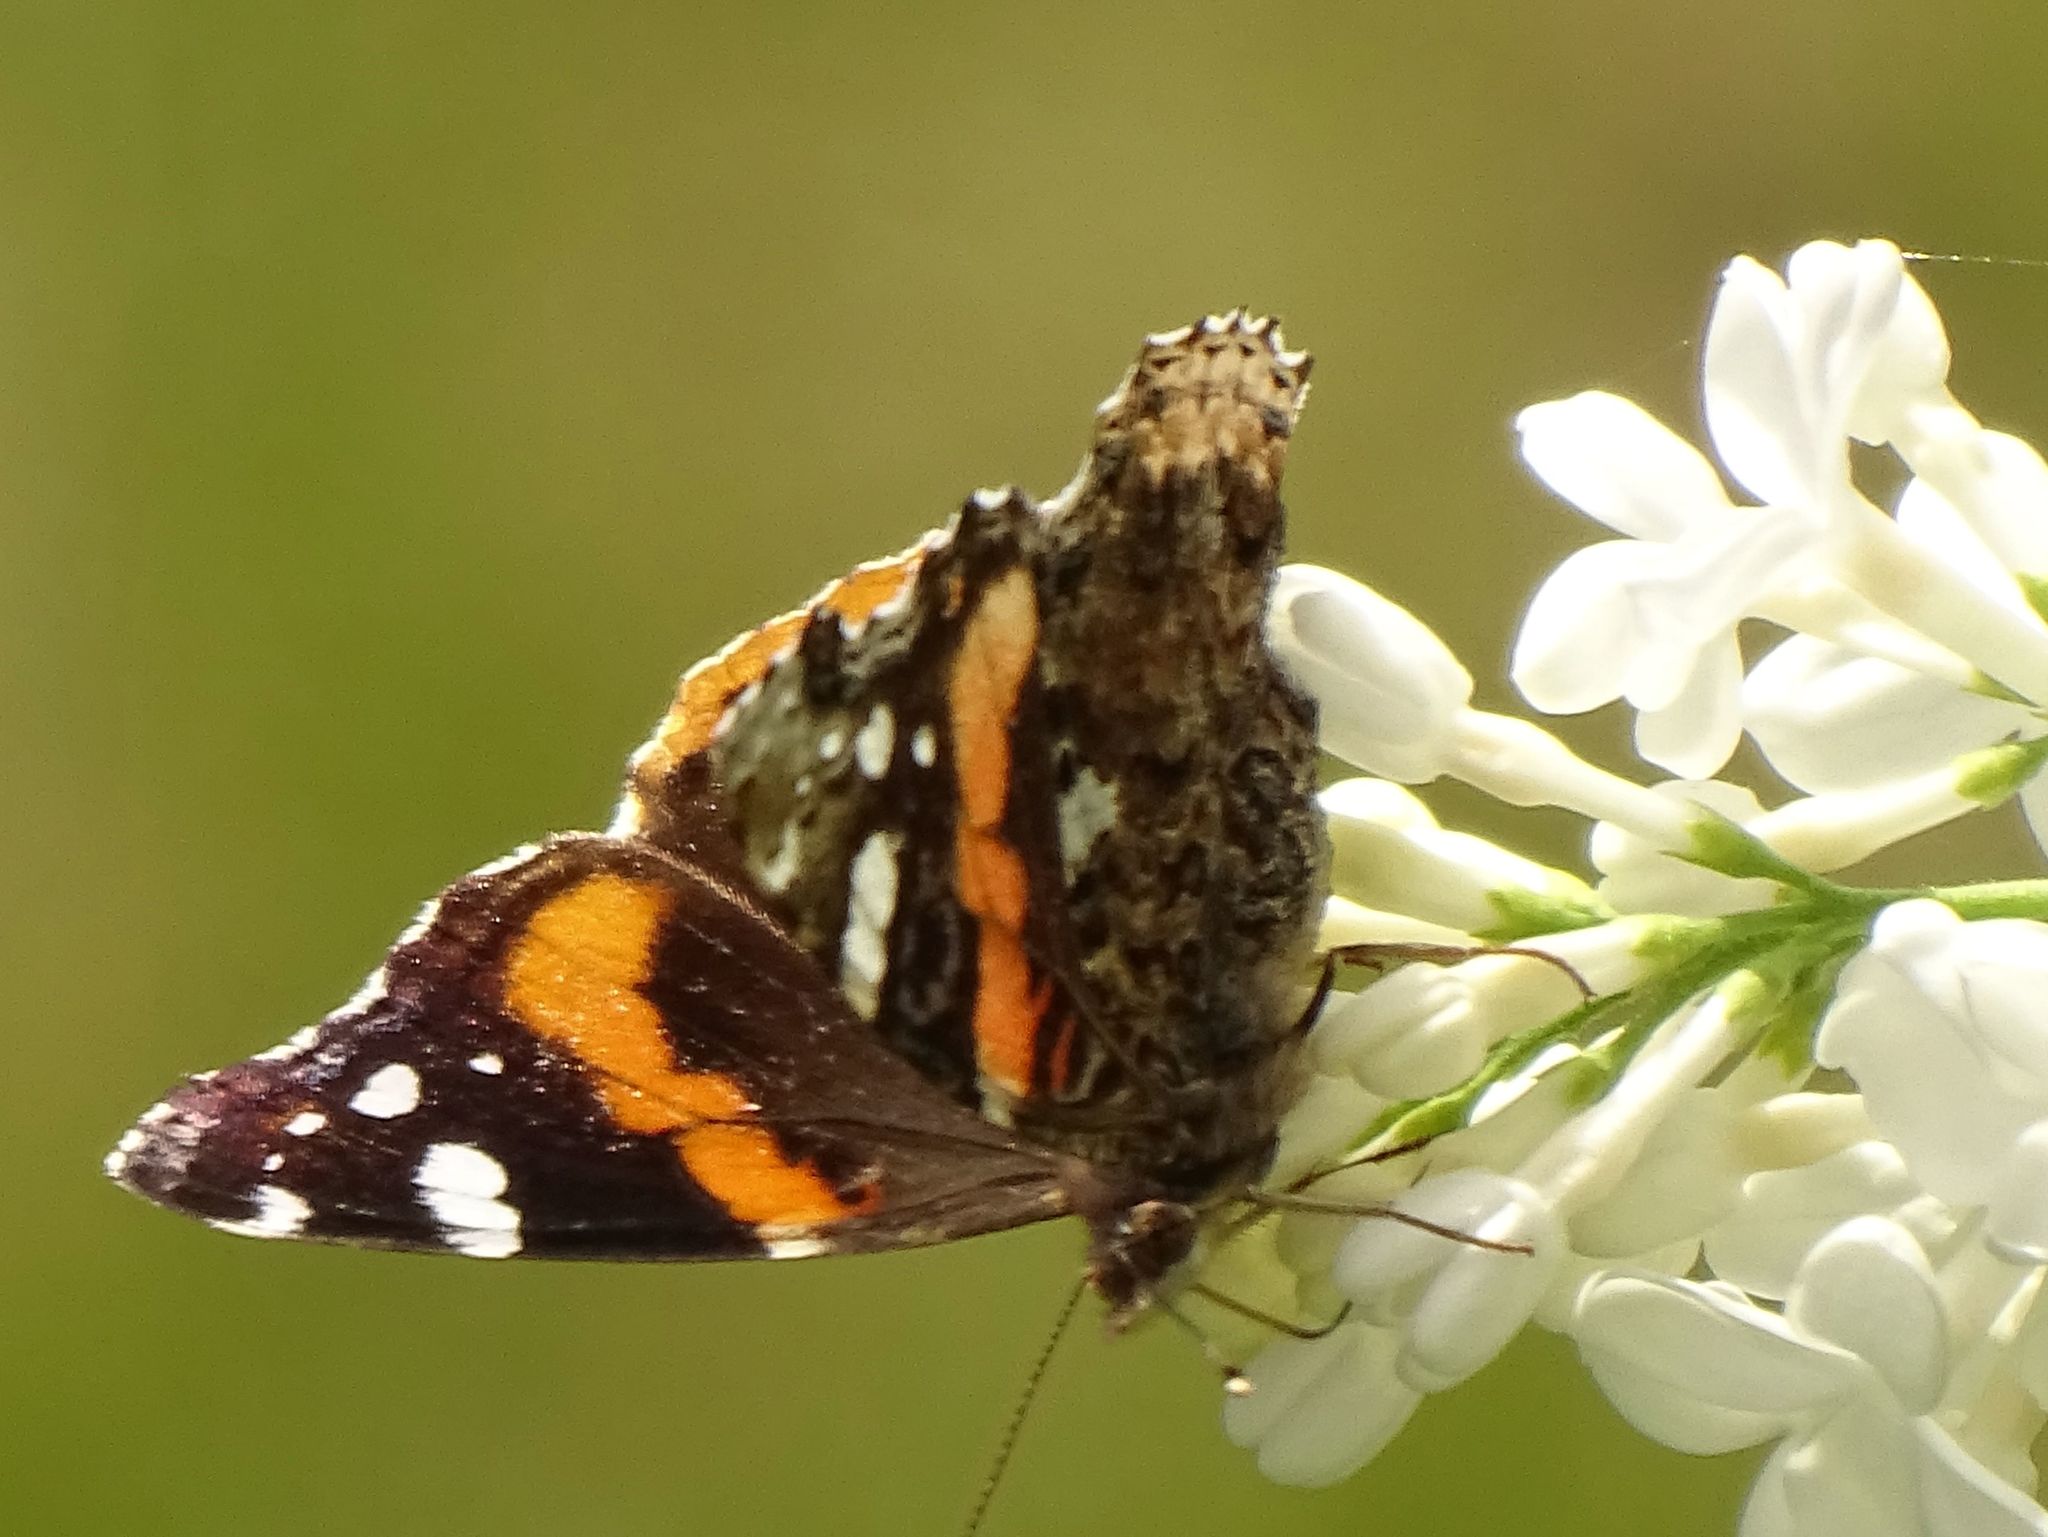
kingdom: Animalia
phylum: Arthropoda
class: Insecta
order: Lepidoptera
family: Nymphalidae
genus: Vanessa
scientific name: Vanessa atalanta
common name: Red admiral
